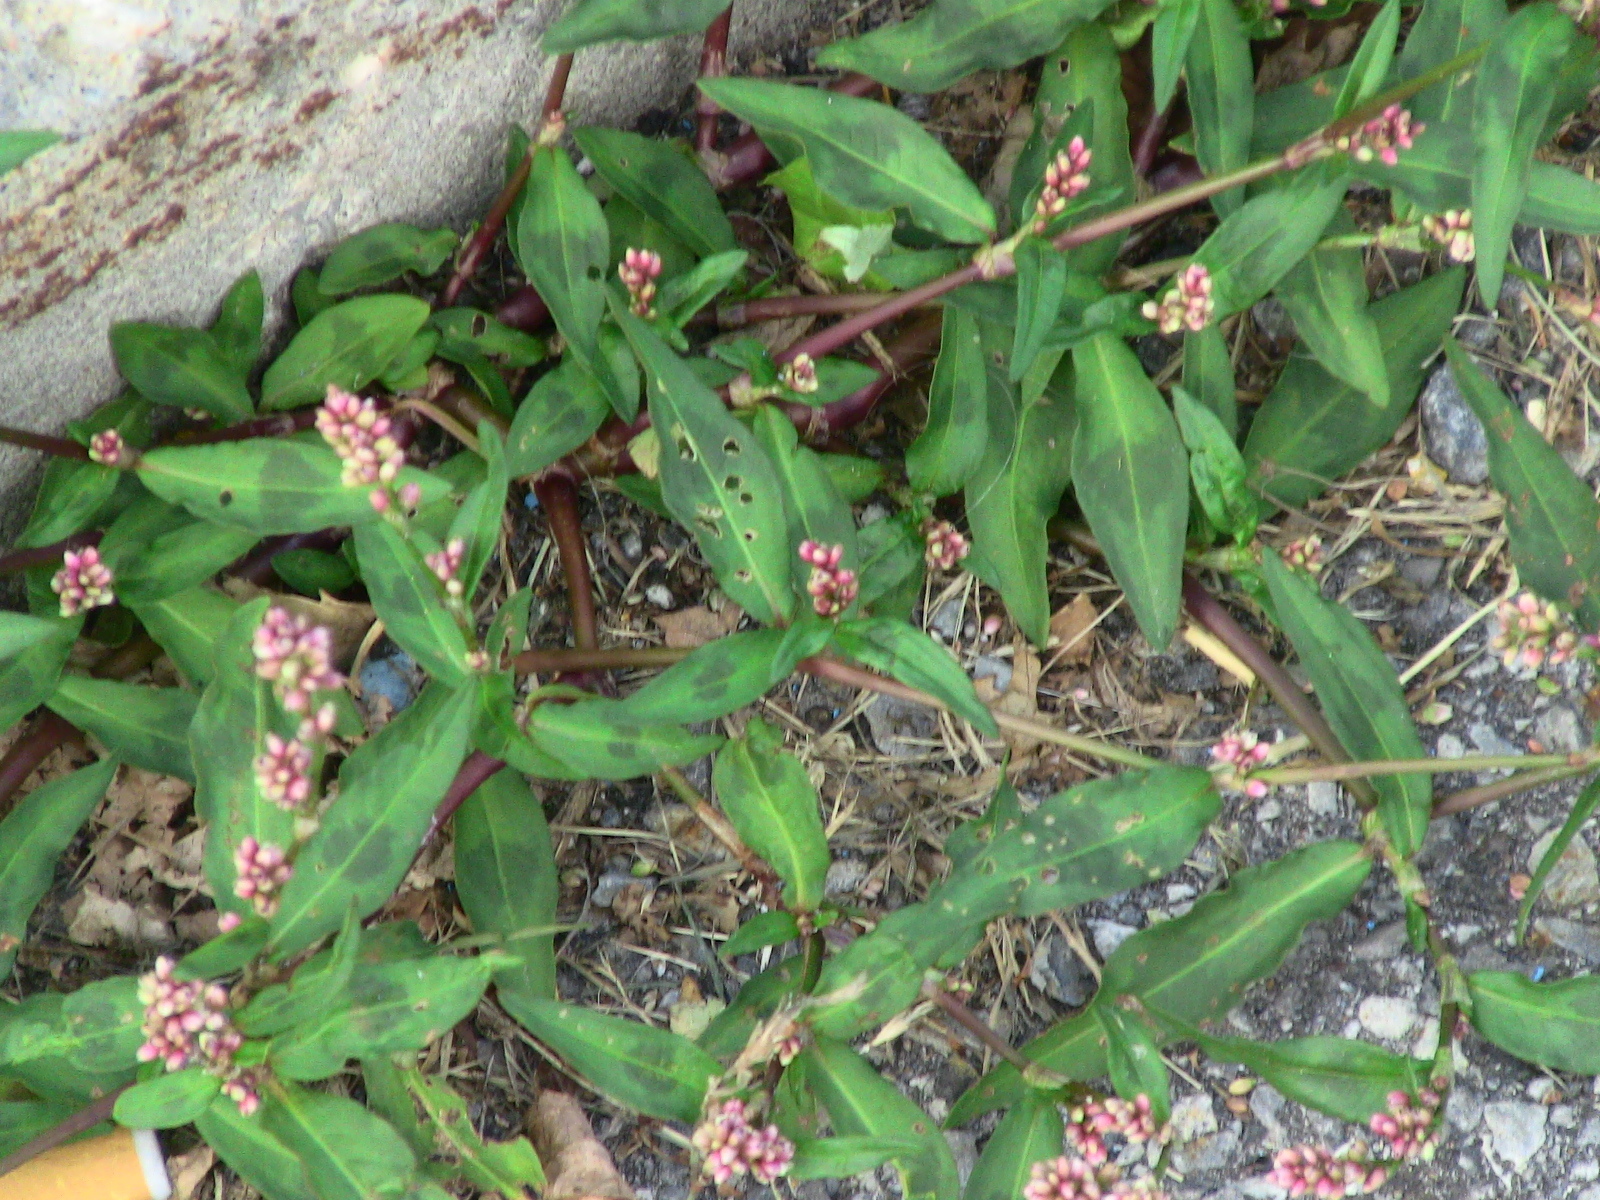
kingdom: Plantae
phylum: Tracheophyta
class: Magnoliopsida
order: Caryophyllales
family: Polygonaceae
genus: Persicaria
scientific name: Persicaria maculosa
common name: Redshank
